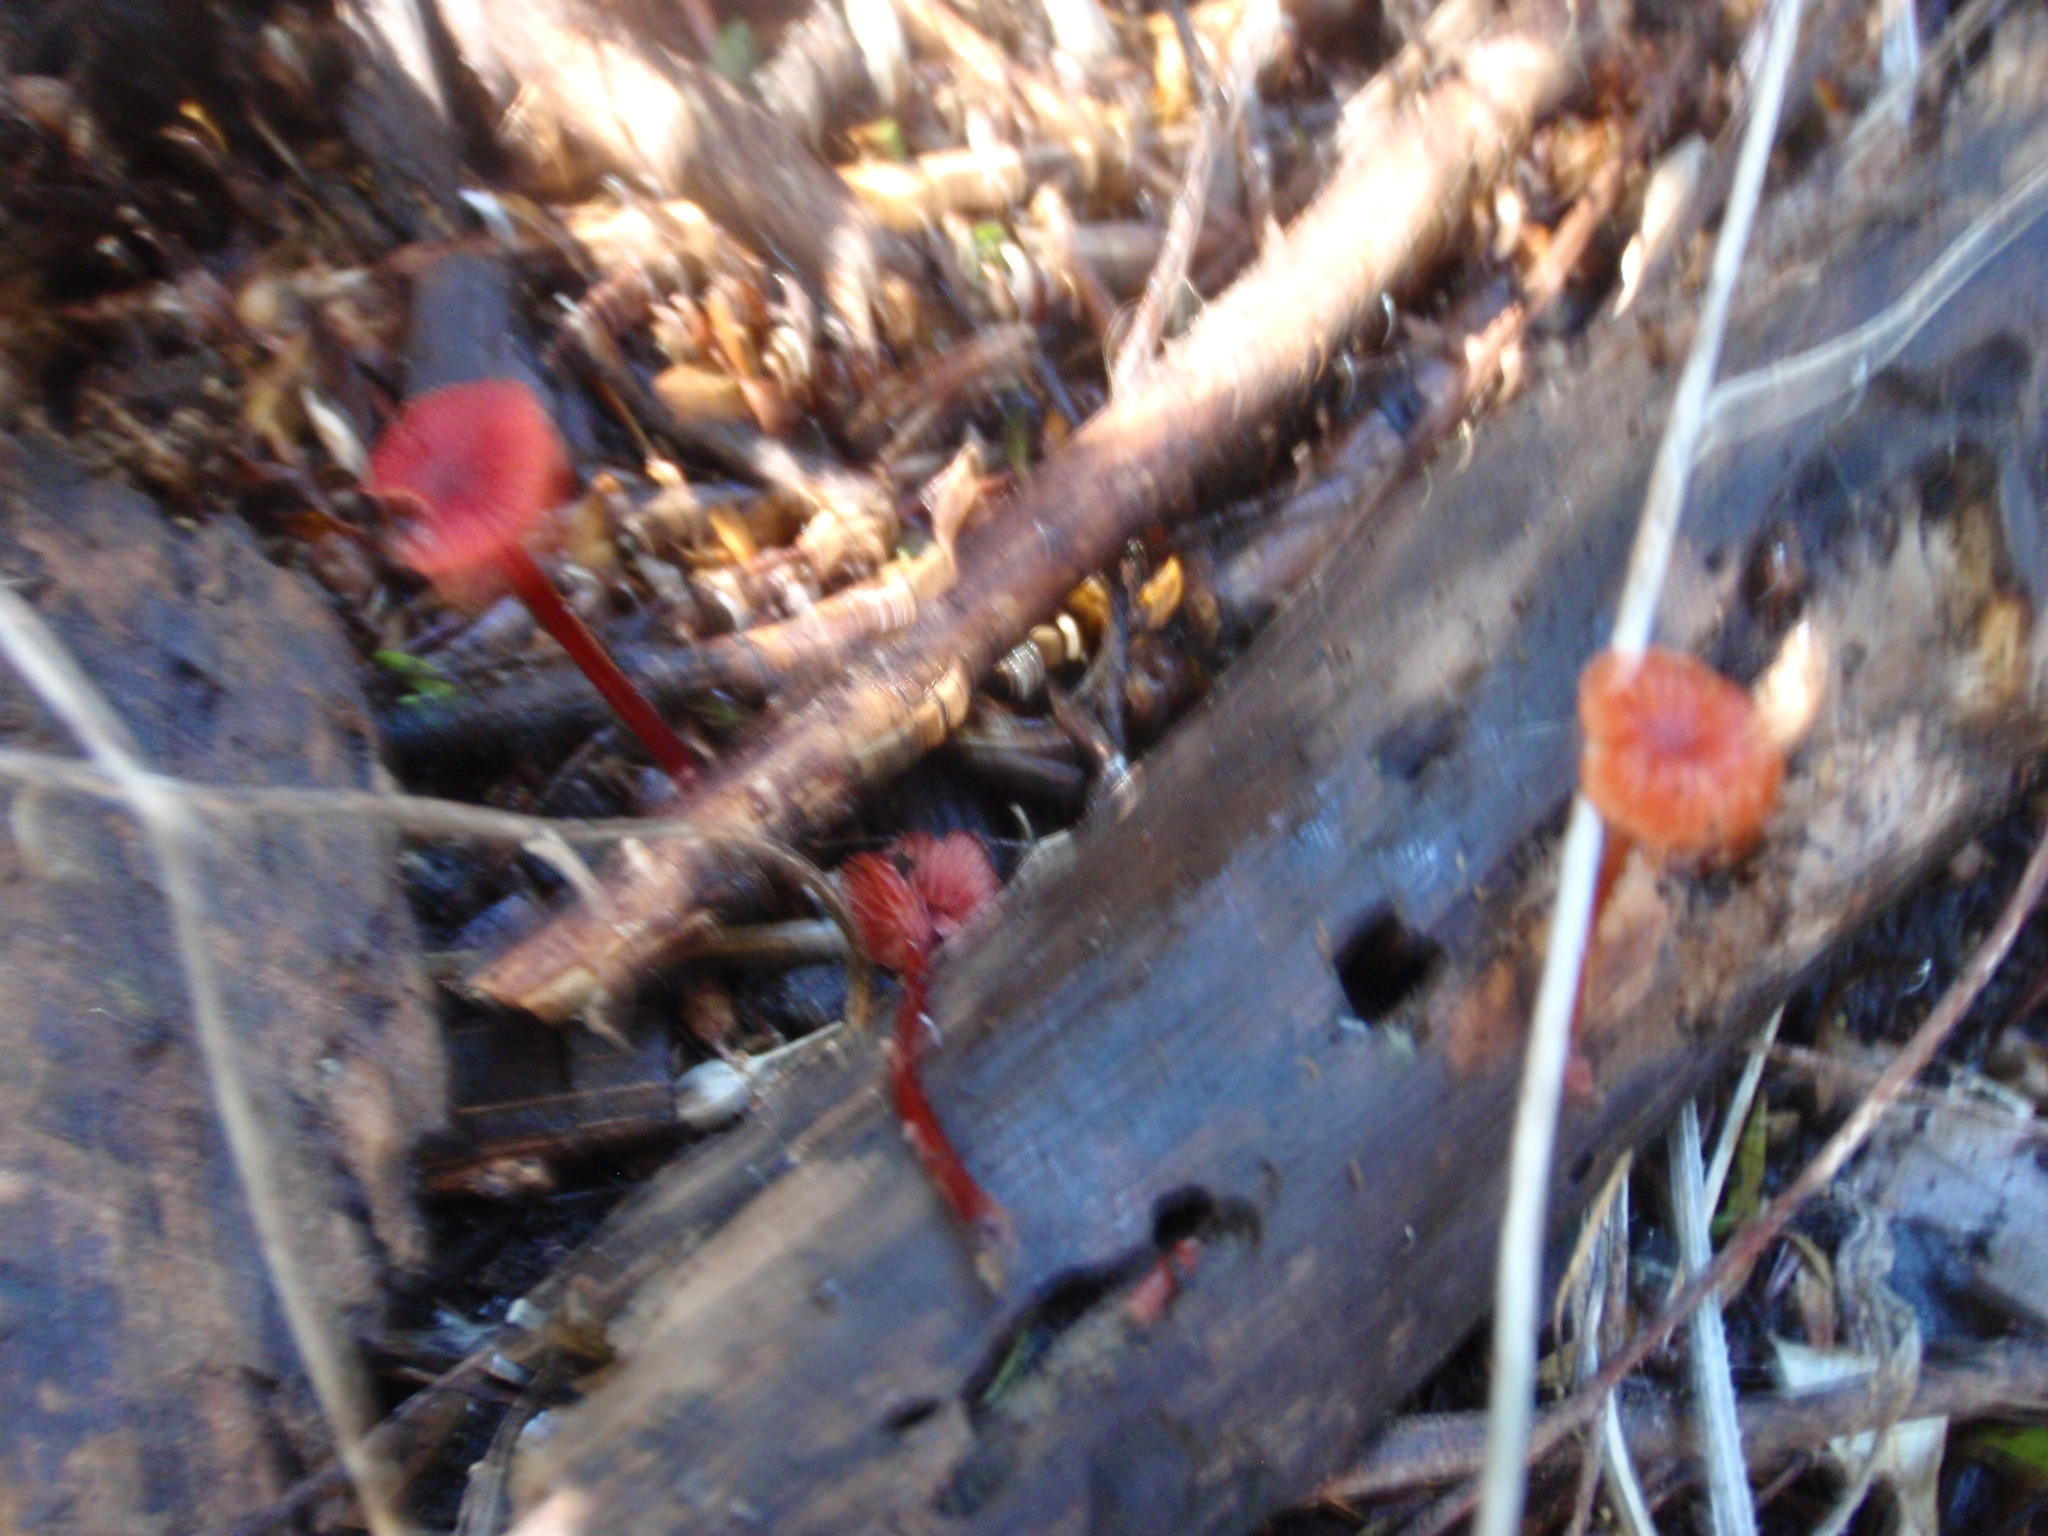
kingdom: Fungi
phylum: Basidiomycota
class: Agaricomycetes
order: Agaricales
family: Mycenaceae
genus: Cruentomycena
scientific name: Cruentomycena viscidocruenta
